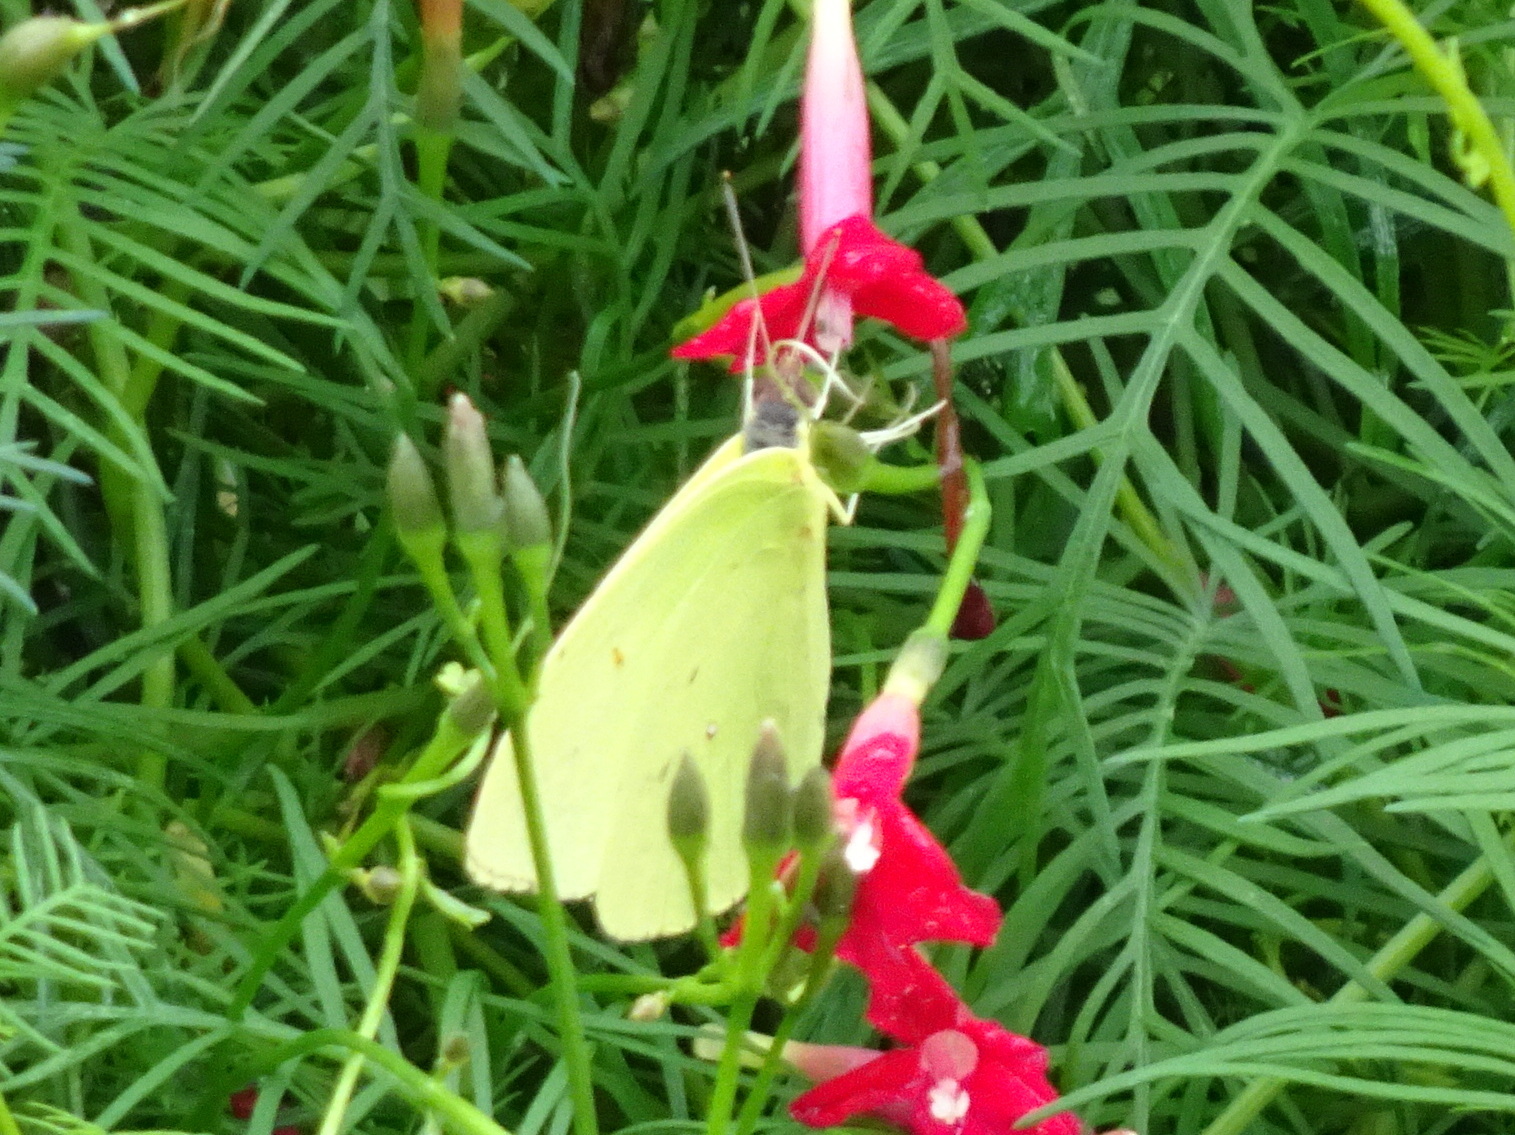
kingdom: Animalia
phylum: Arthropoda
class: Insecta
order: Lepidoptera
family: Pieridae
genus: Phoebis
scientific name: Phoebis sennae
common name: Cloudless sulphur
